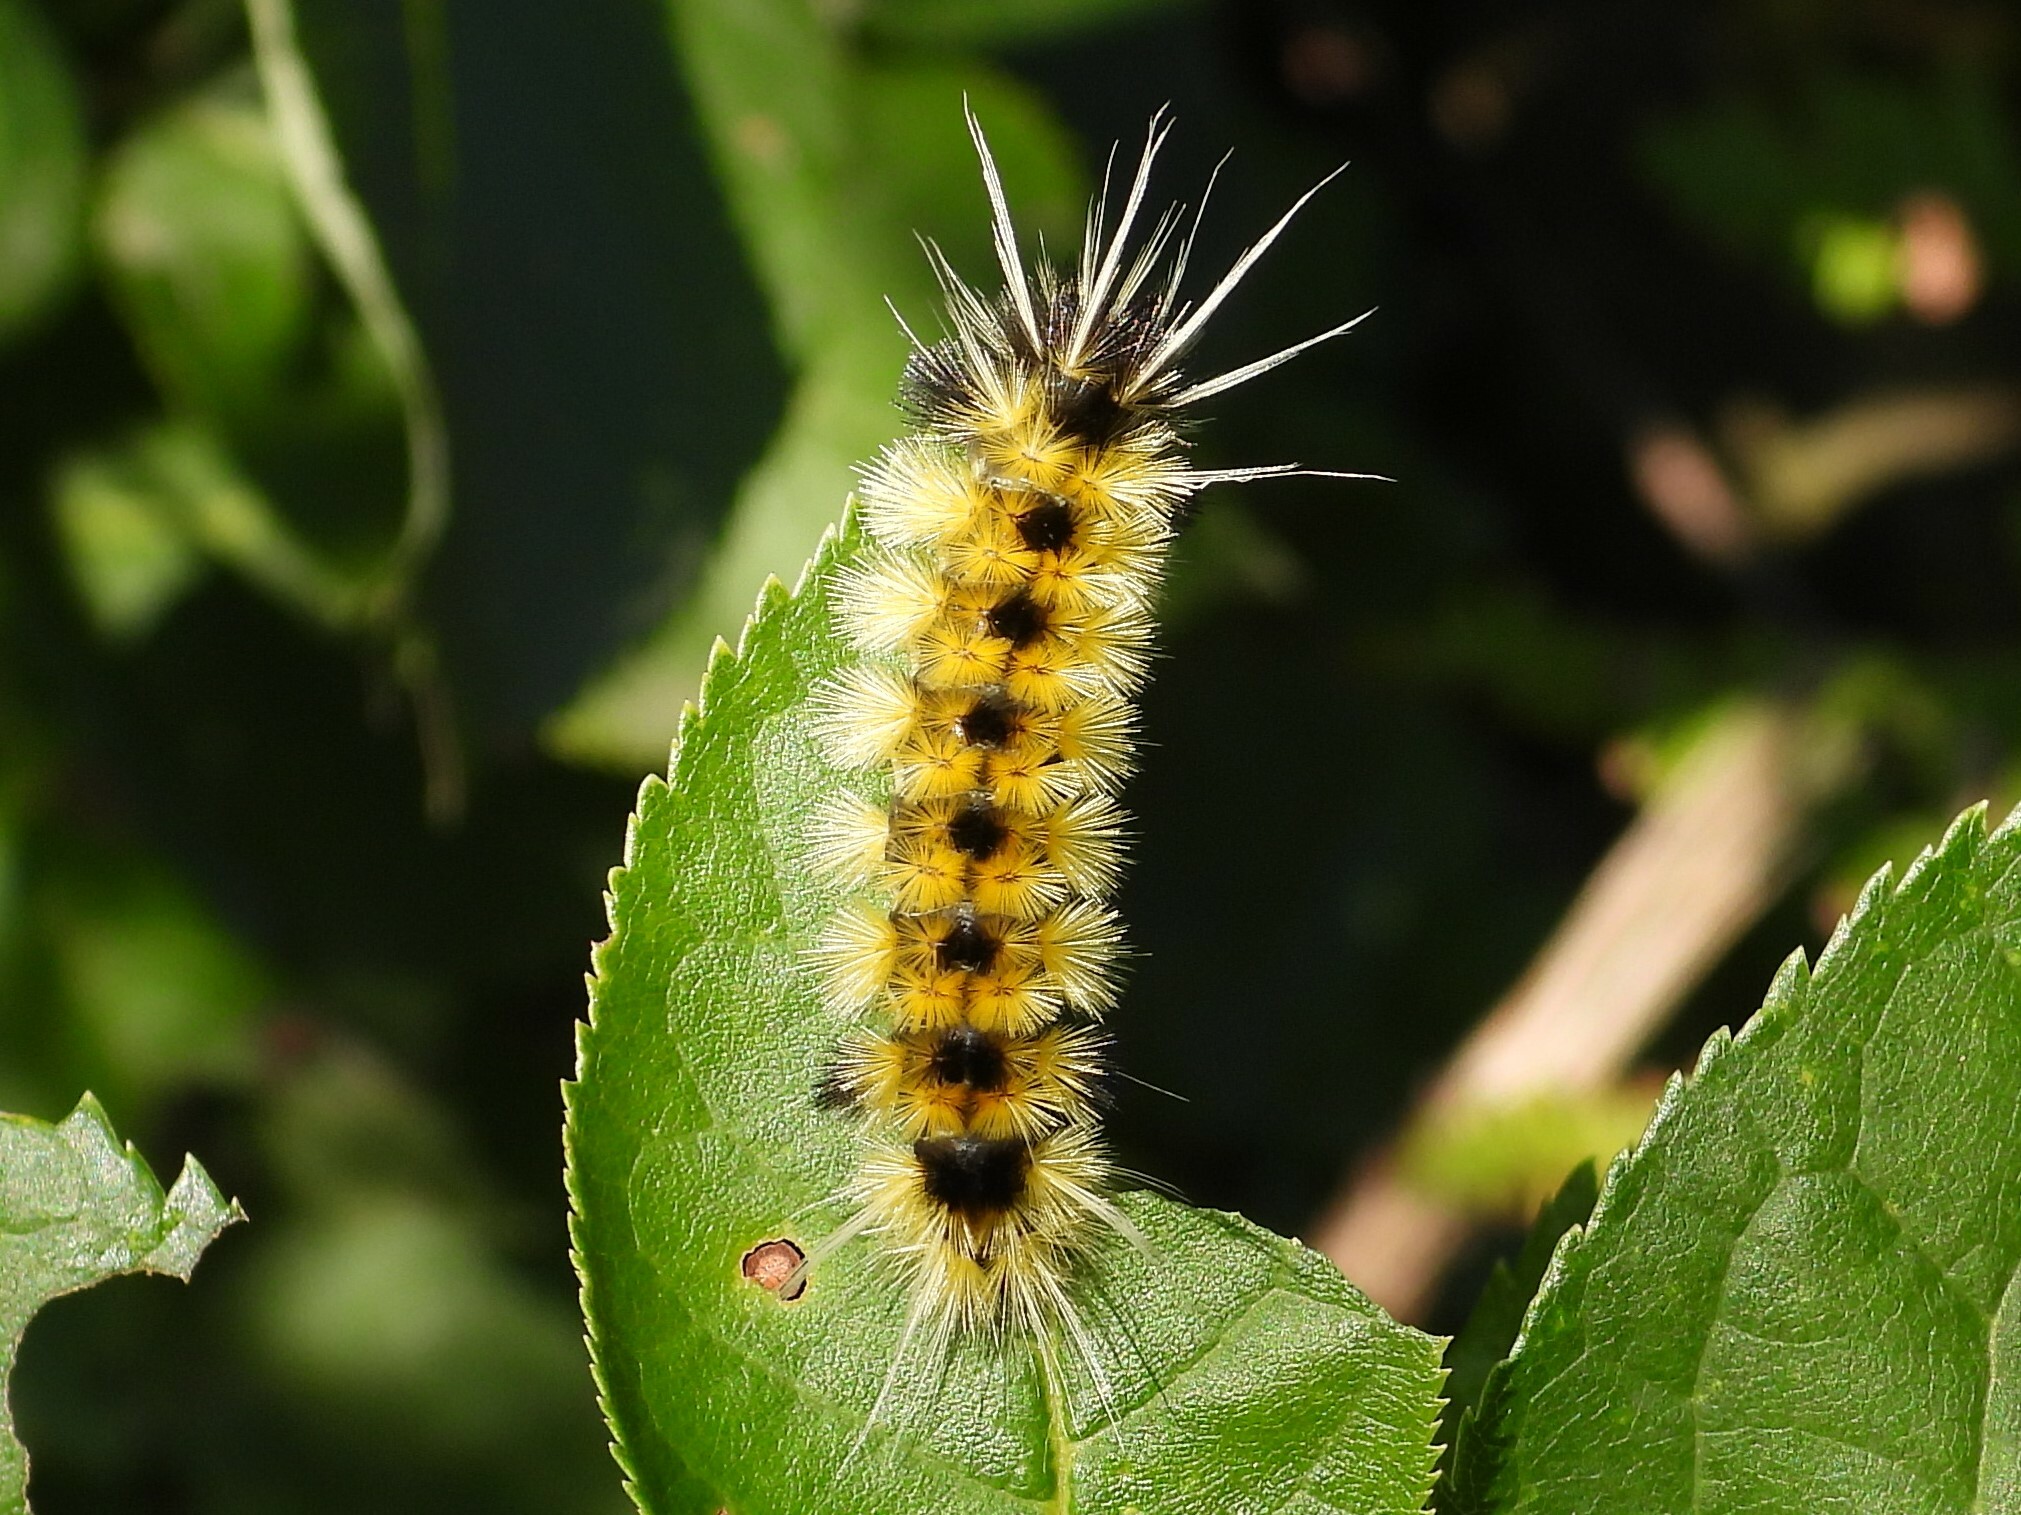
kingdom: Animalia
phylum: Arthropoda
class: Insecta
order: Lepidoptera
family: Erebidae
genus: Lophocampa
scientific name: Lophocampa maculata
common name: Spotted tussock moth
